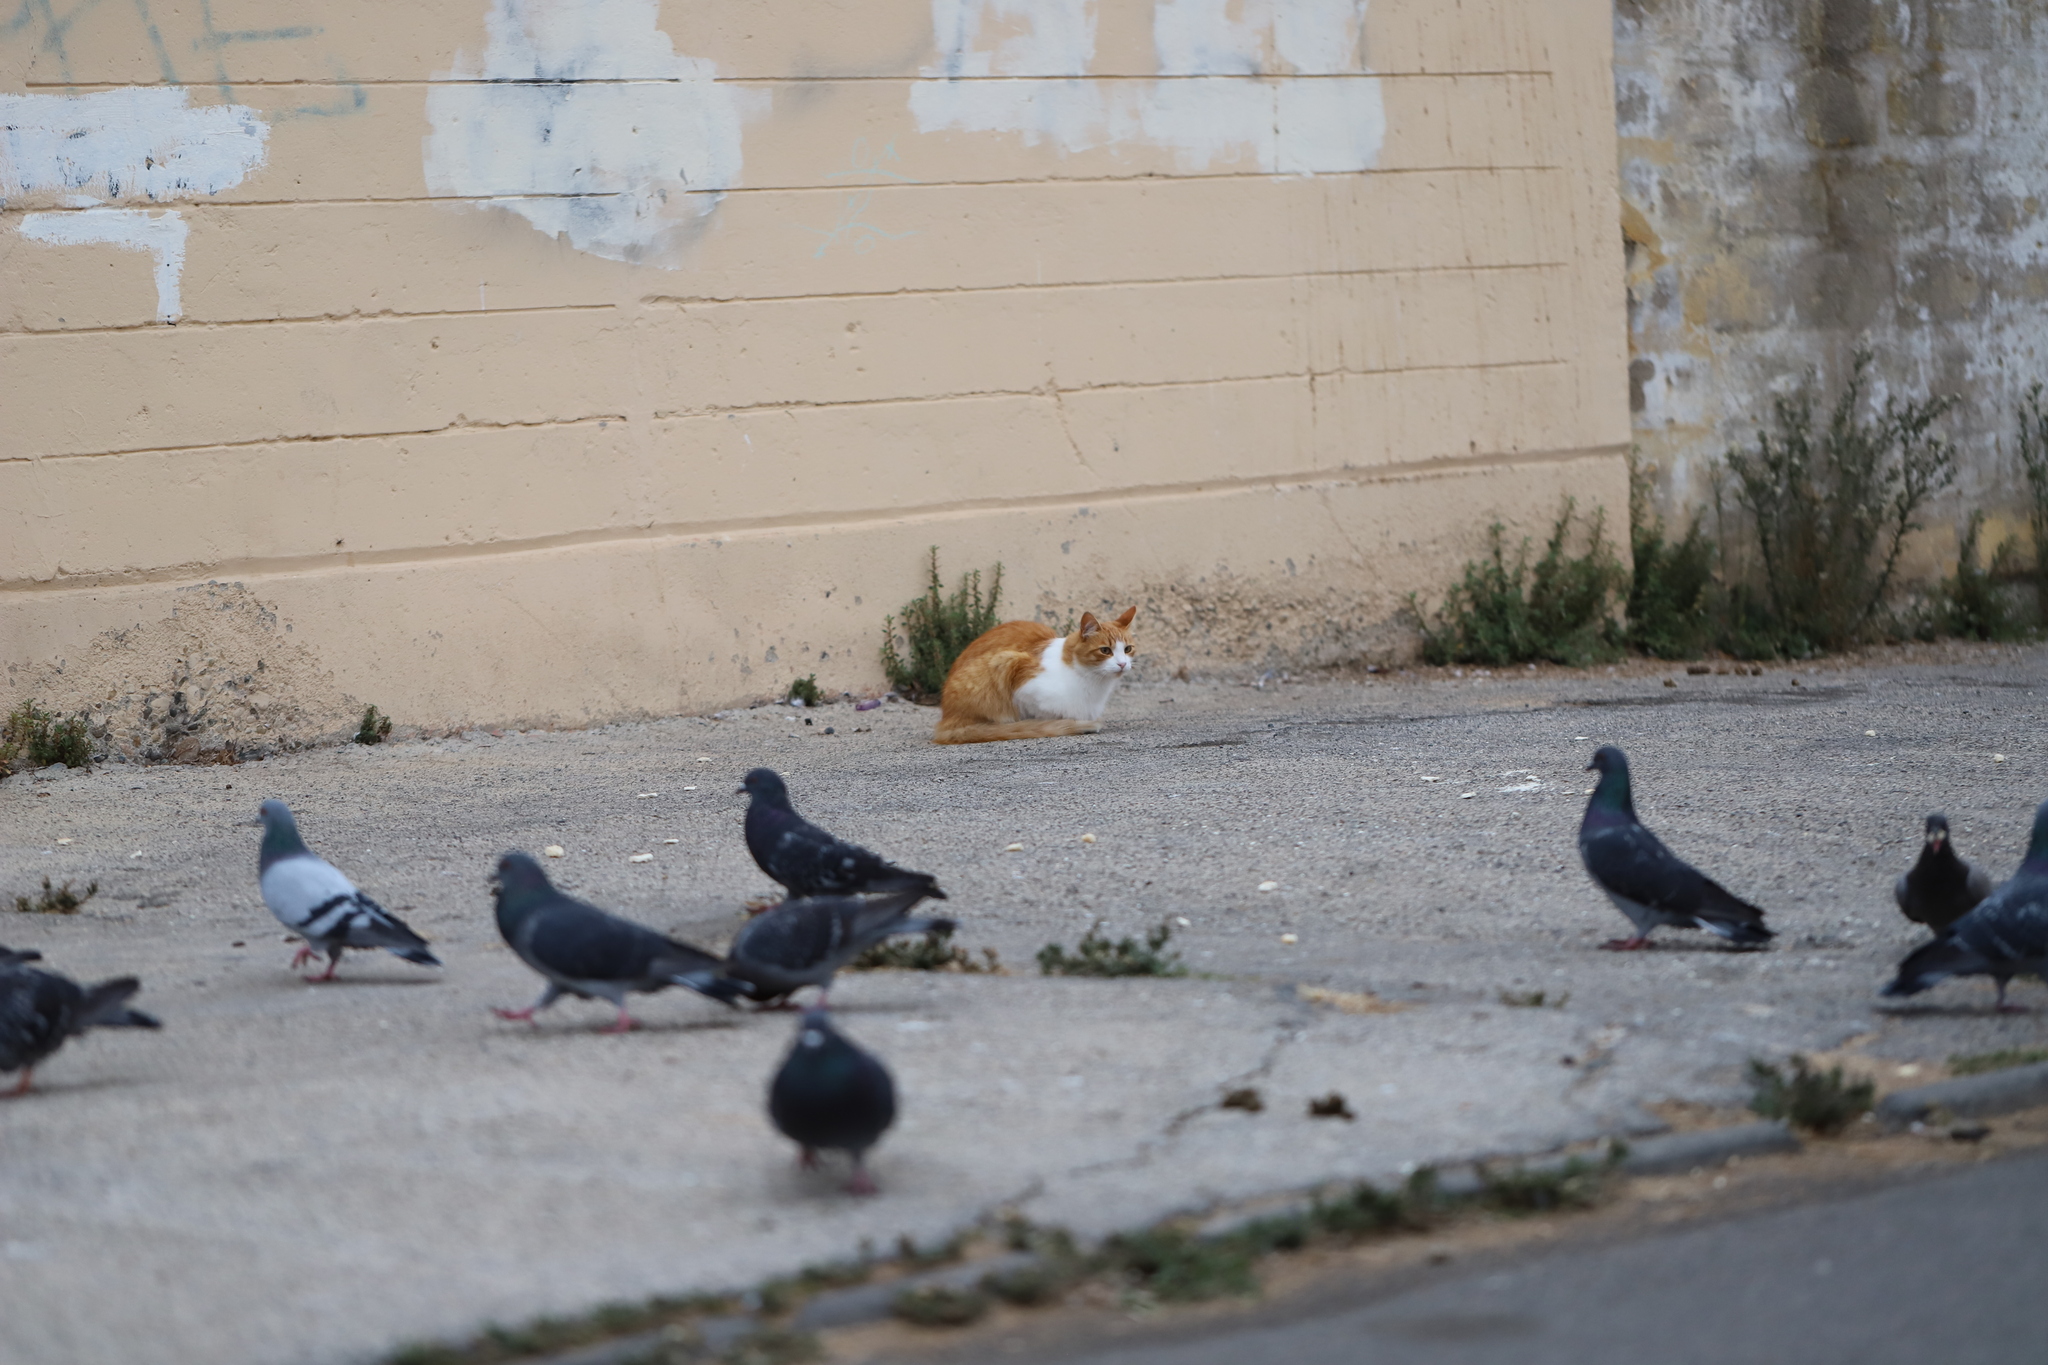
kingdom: Animalia
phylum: Chordata
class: Aves
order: Columbiformes
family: Columbidae
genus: Columba
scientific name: Columba livia
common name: Rock pigeon
